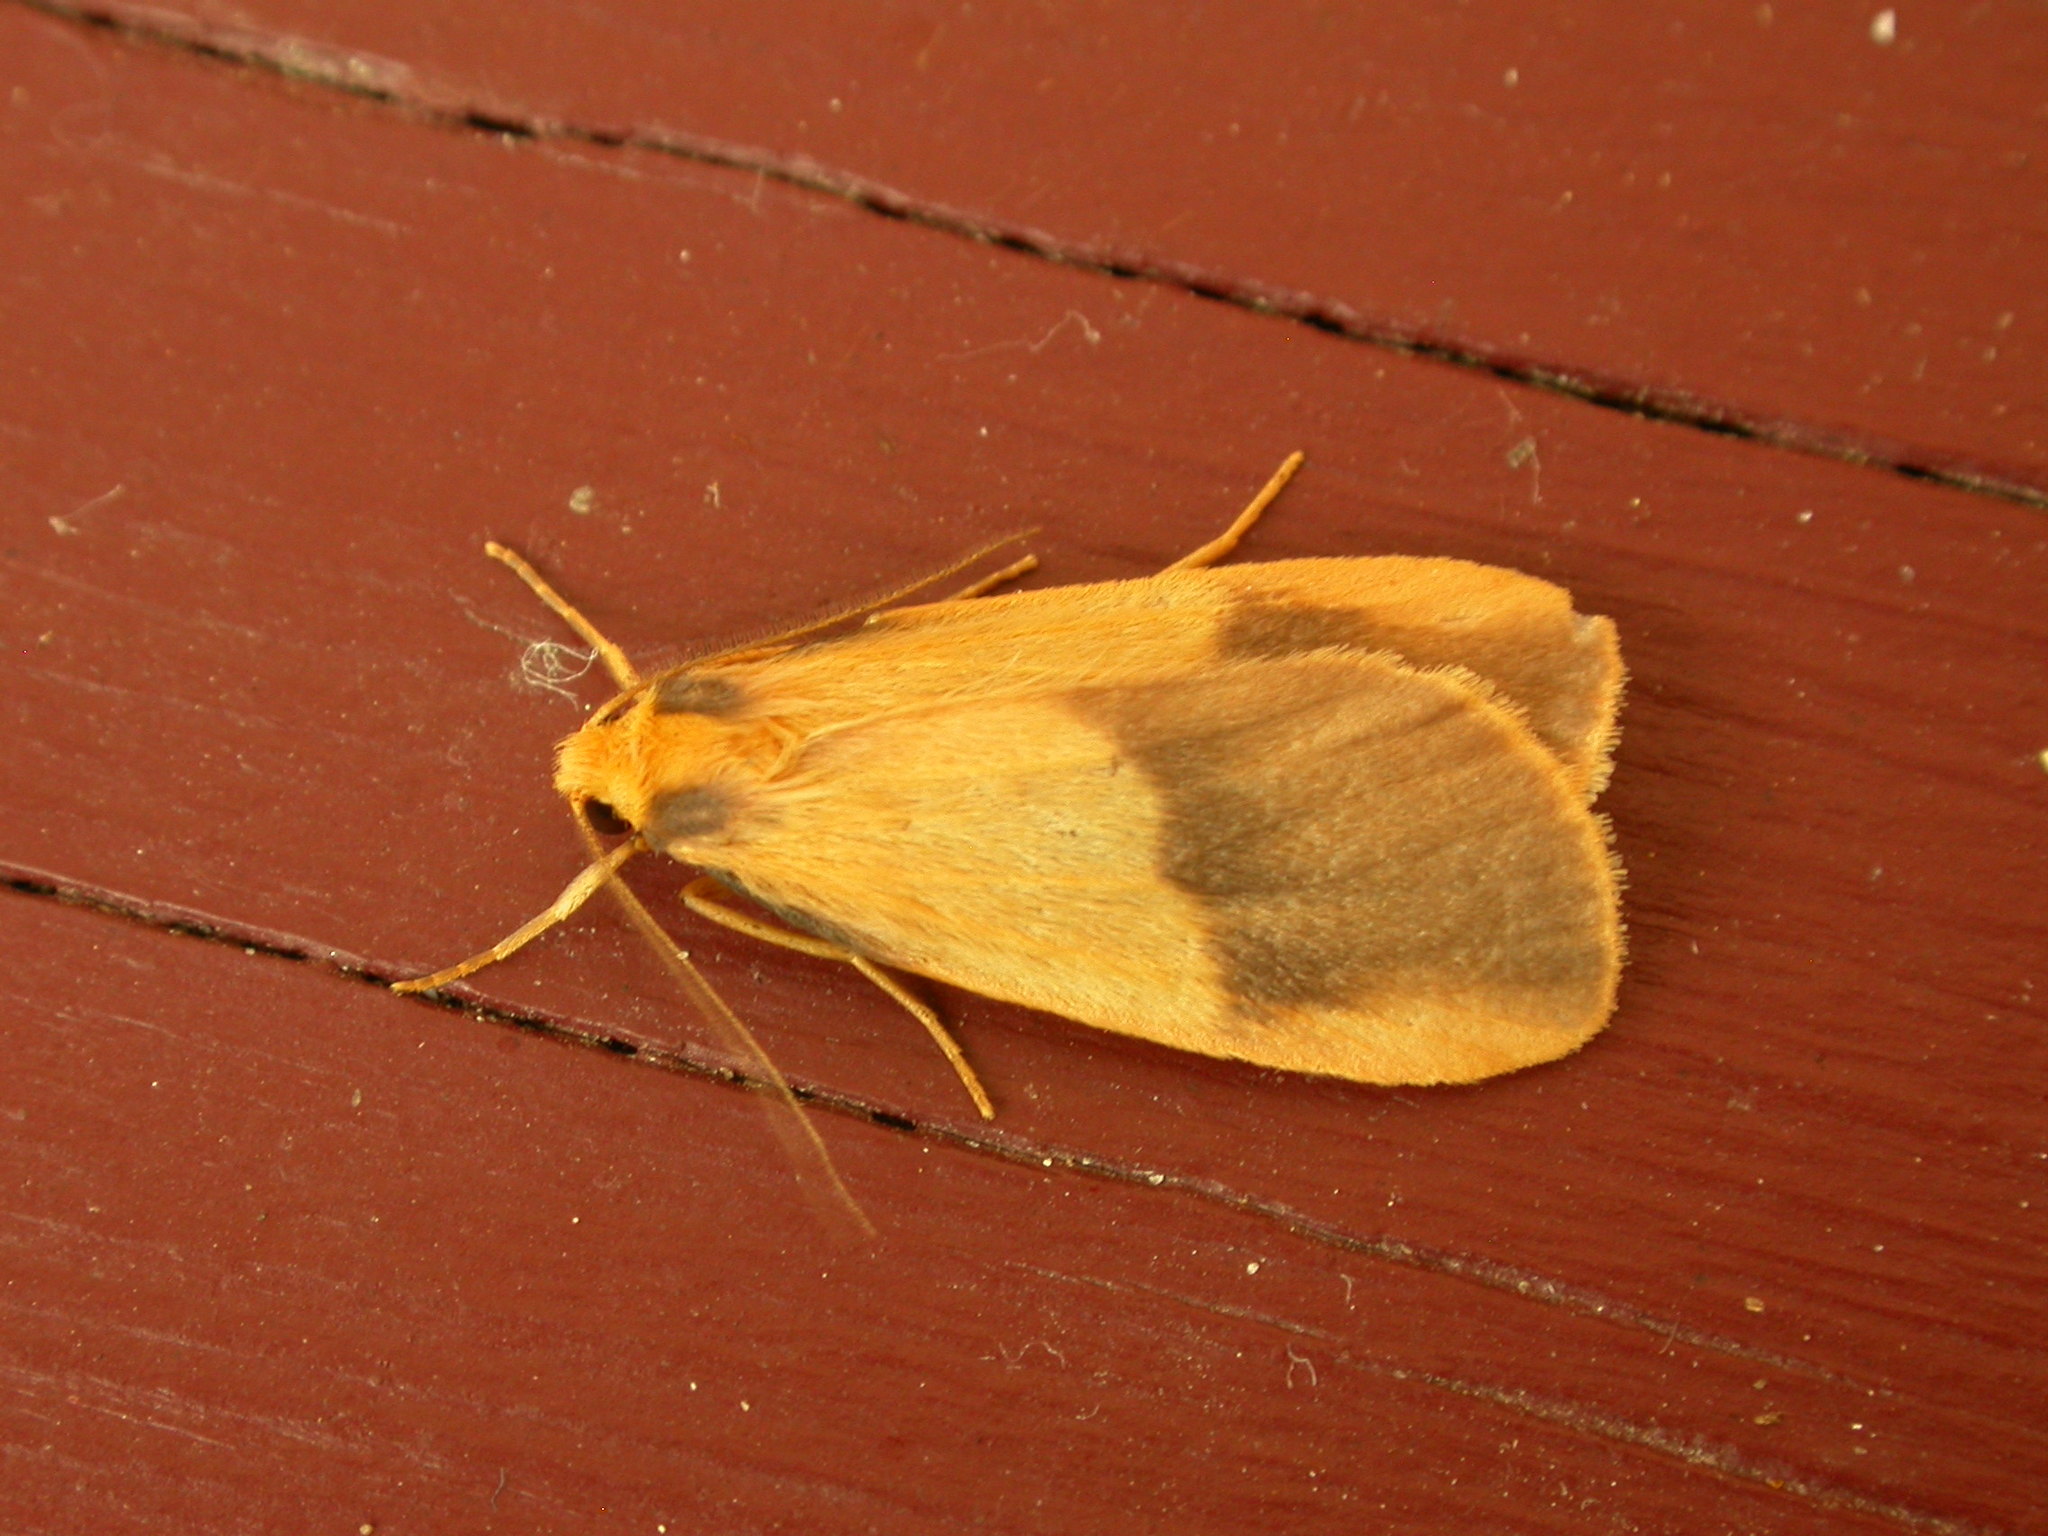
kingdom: Animalia
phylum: Arthropoda
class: Insecta
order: Lepidoptera
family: Erebidae
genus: Threnosia
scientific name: Threnosia heminephes
